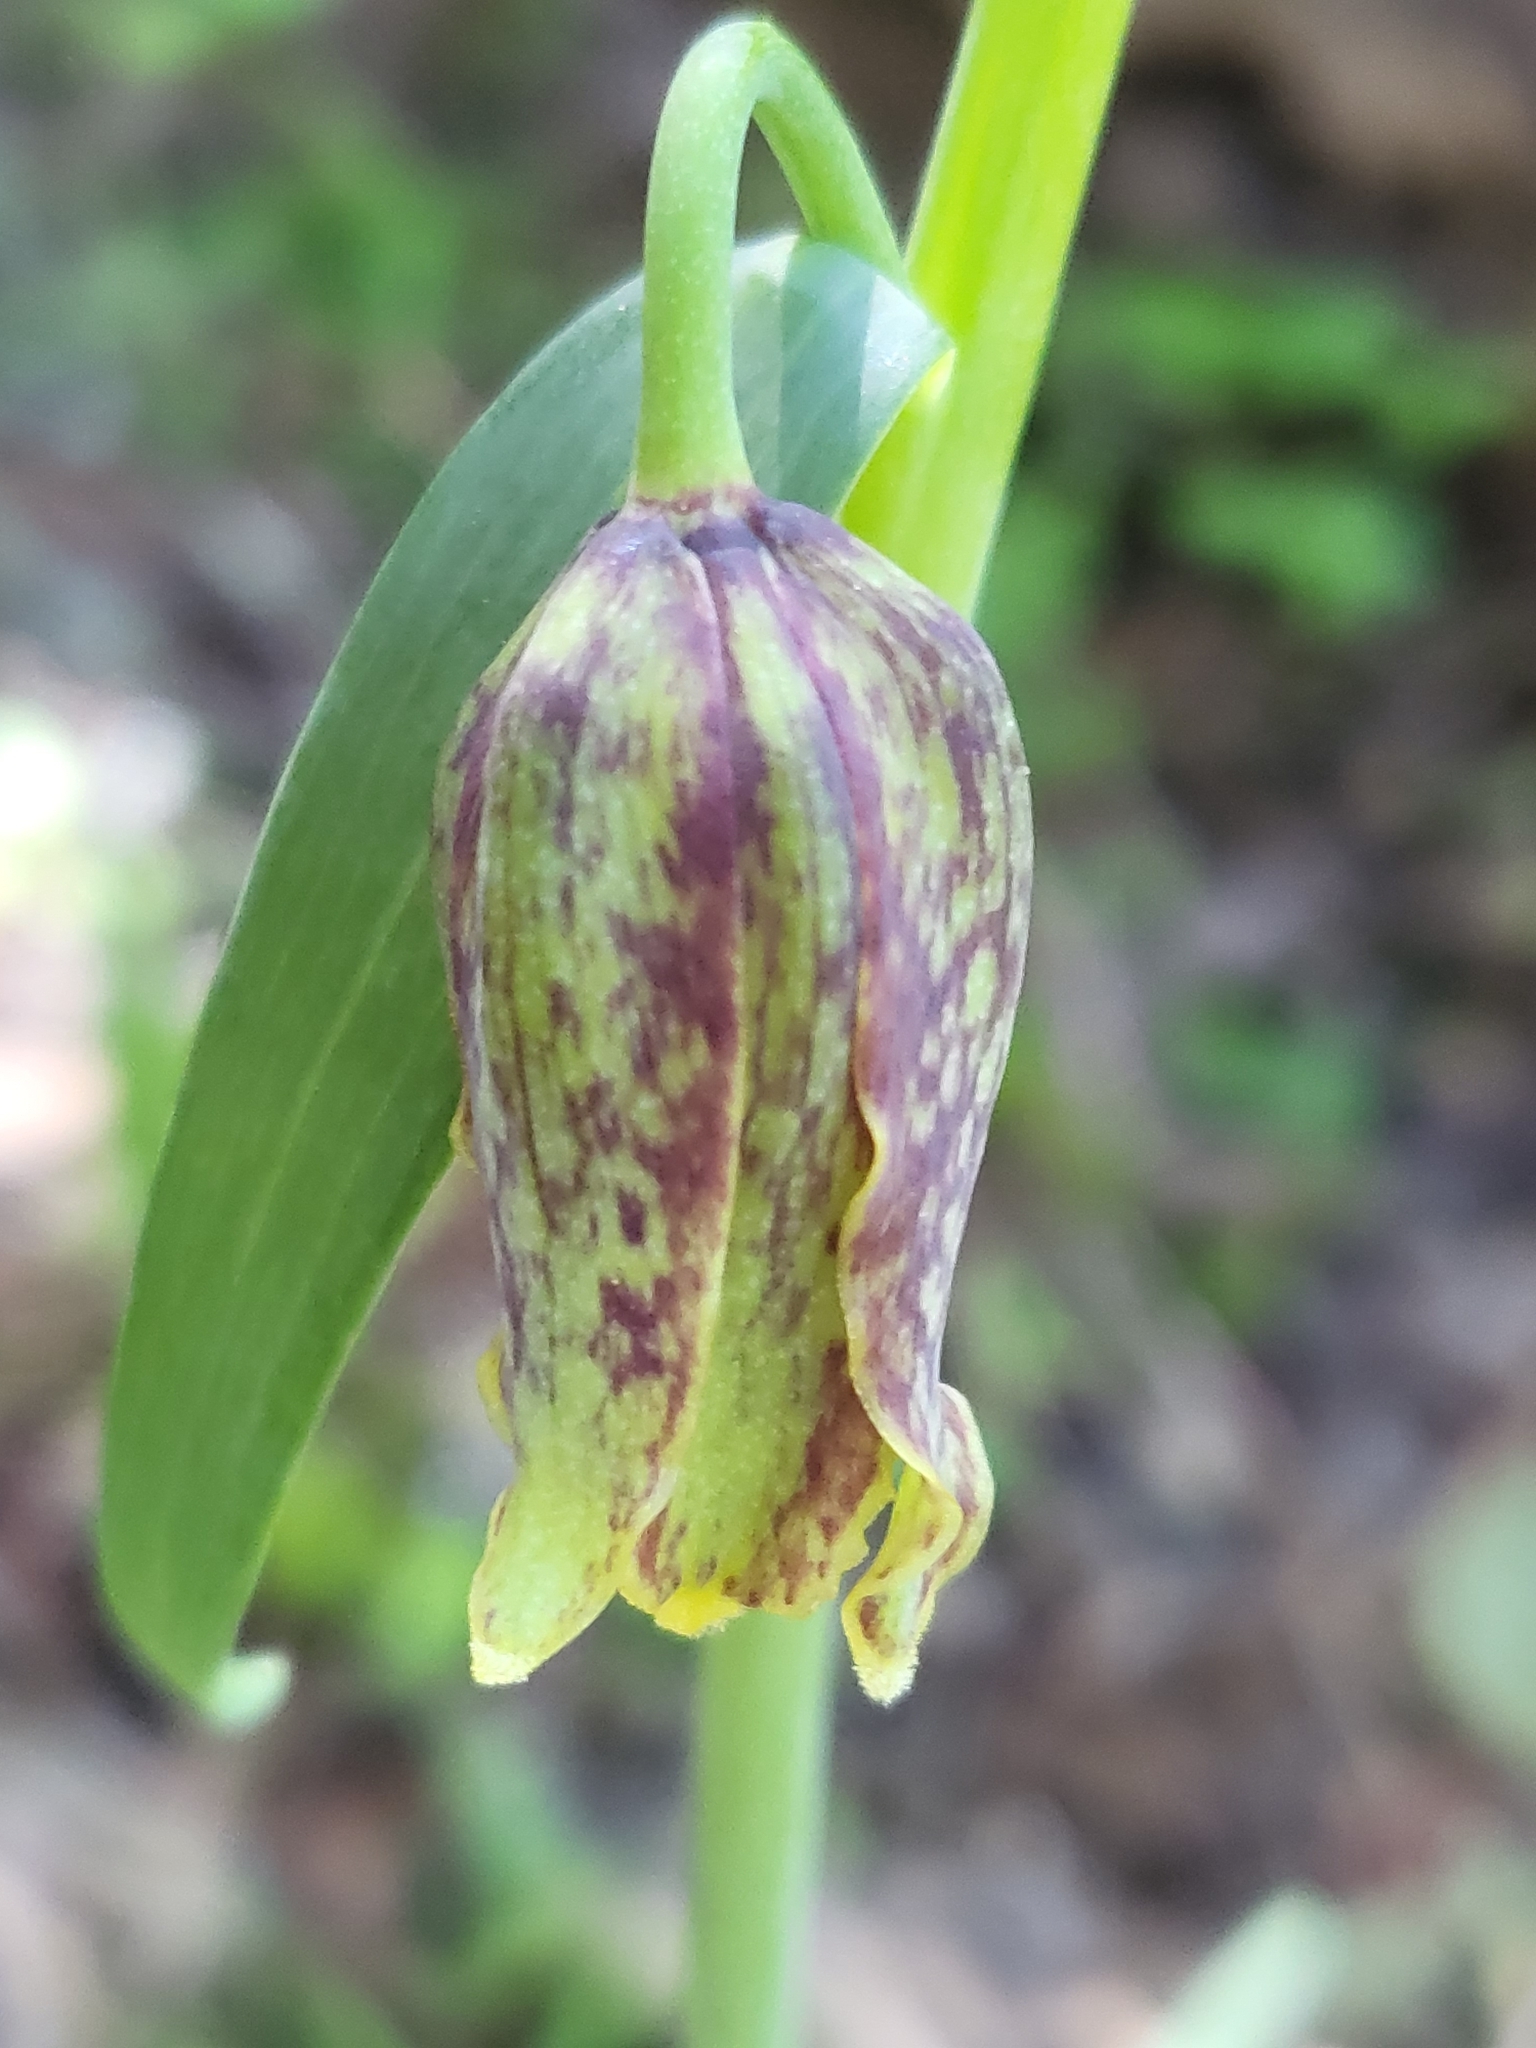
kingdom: Plantae
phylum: Tracheophyta
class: Liliopsida
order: Liliales
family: Liliaceae
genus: Fritillaria
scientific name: Fritillaria affinis
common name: Ojai fritillary
